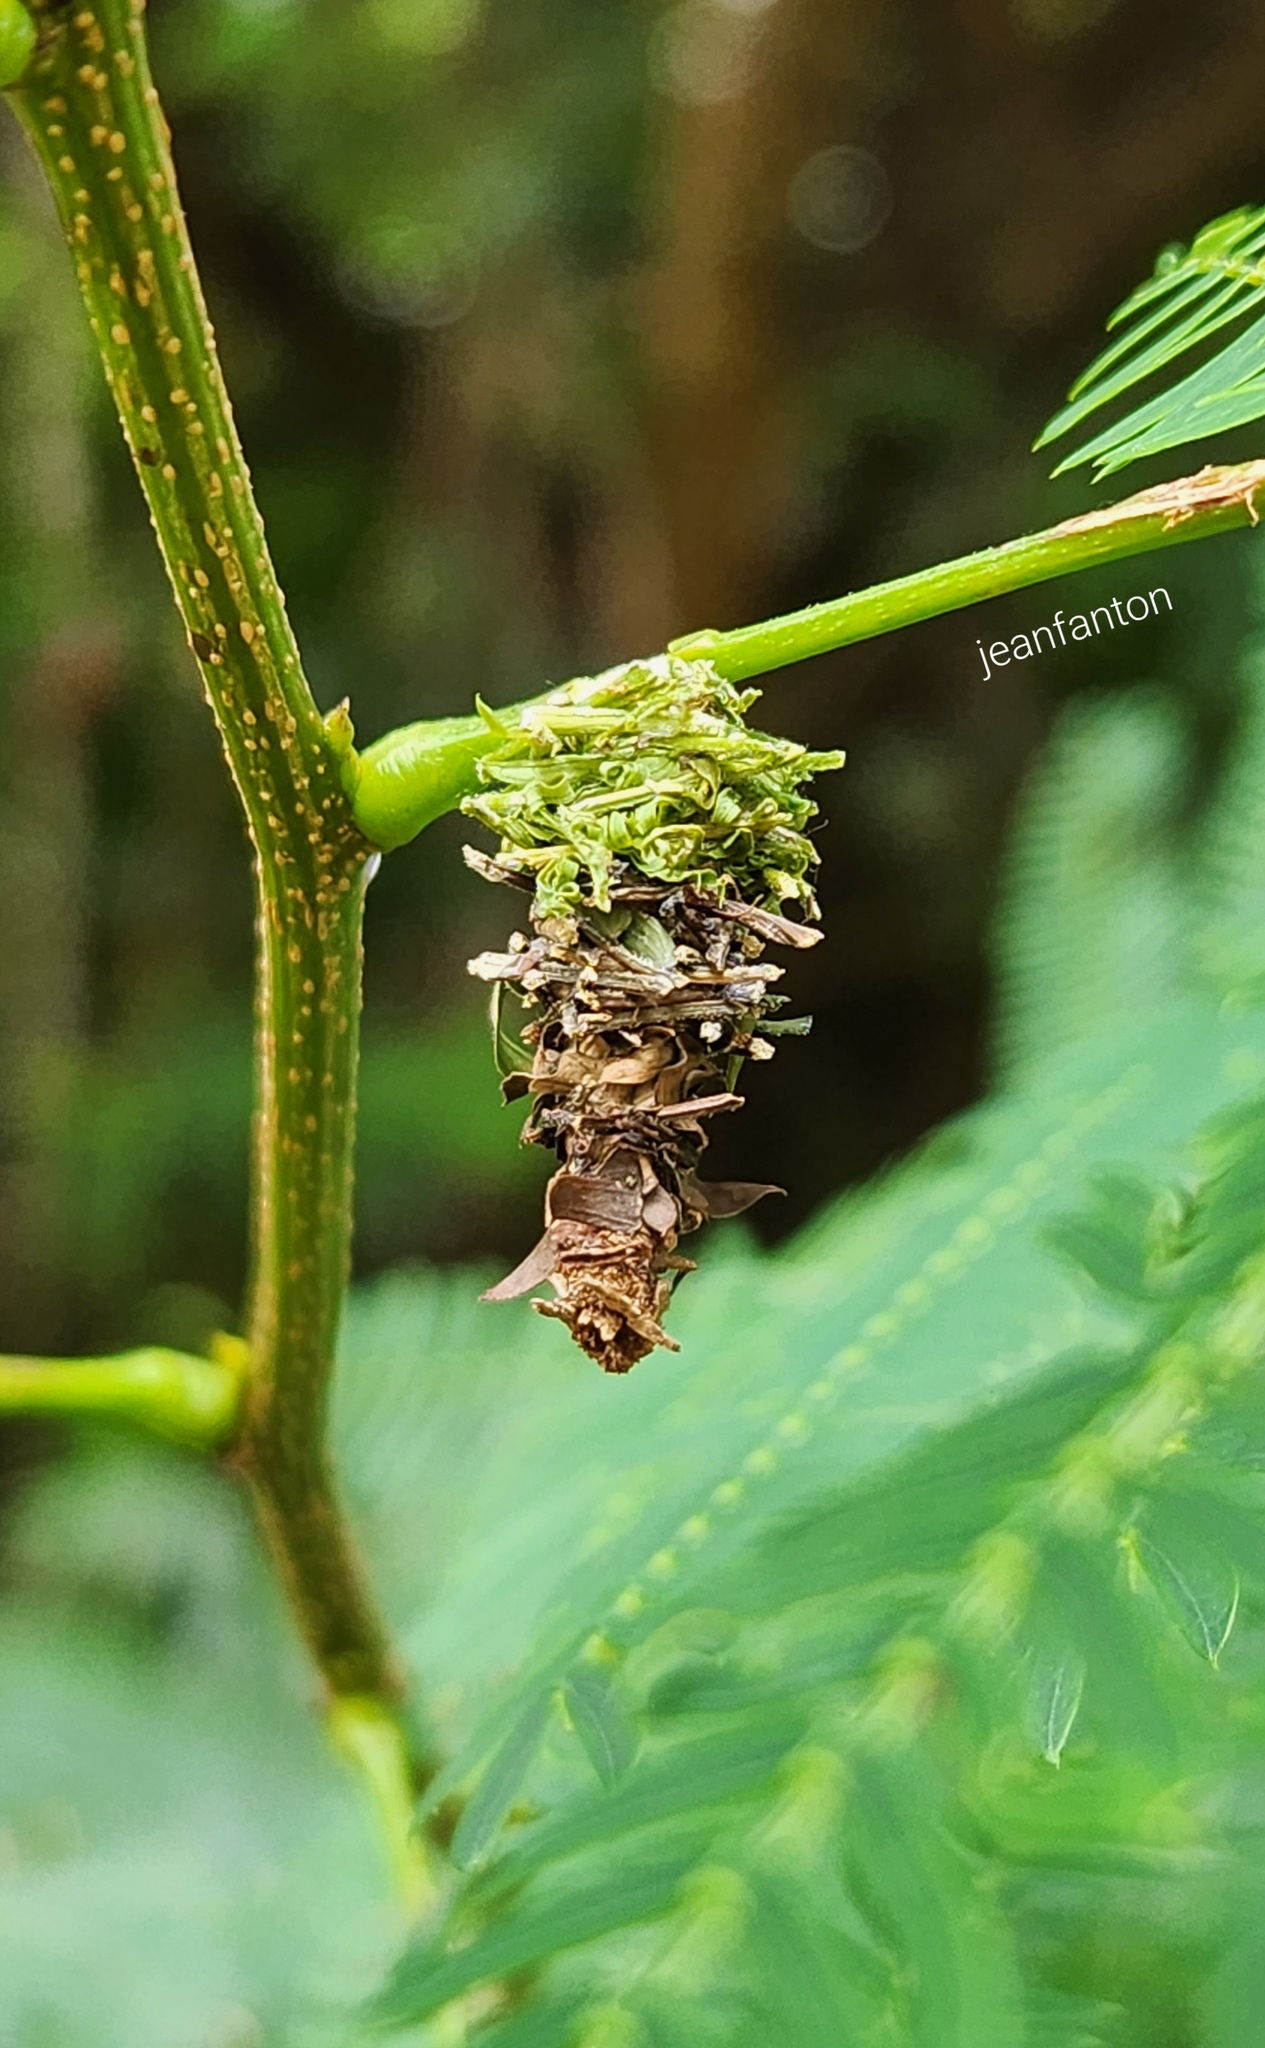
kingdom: Animalia
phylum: Arthropoda
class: Insecta
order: Lepidoptera
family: Psychidae
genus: Oiketicus
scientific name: Oiketicus kirbyi
